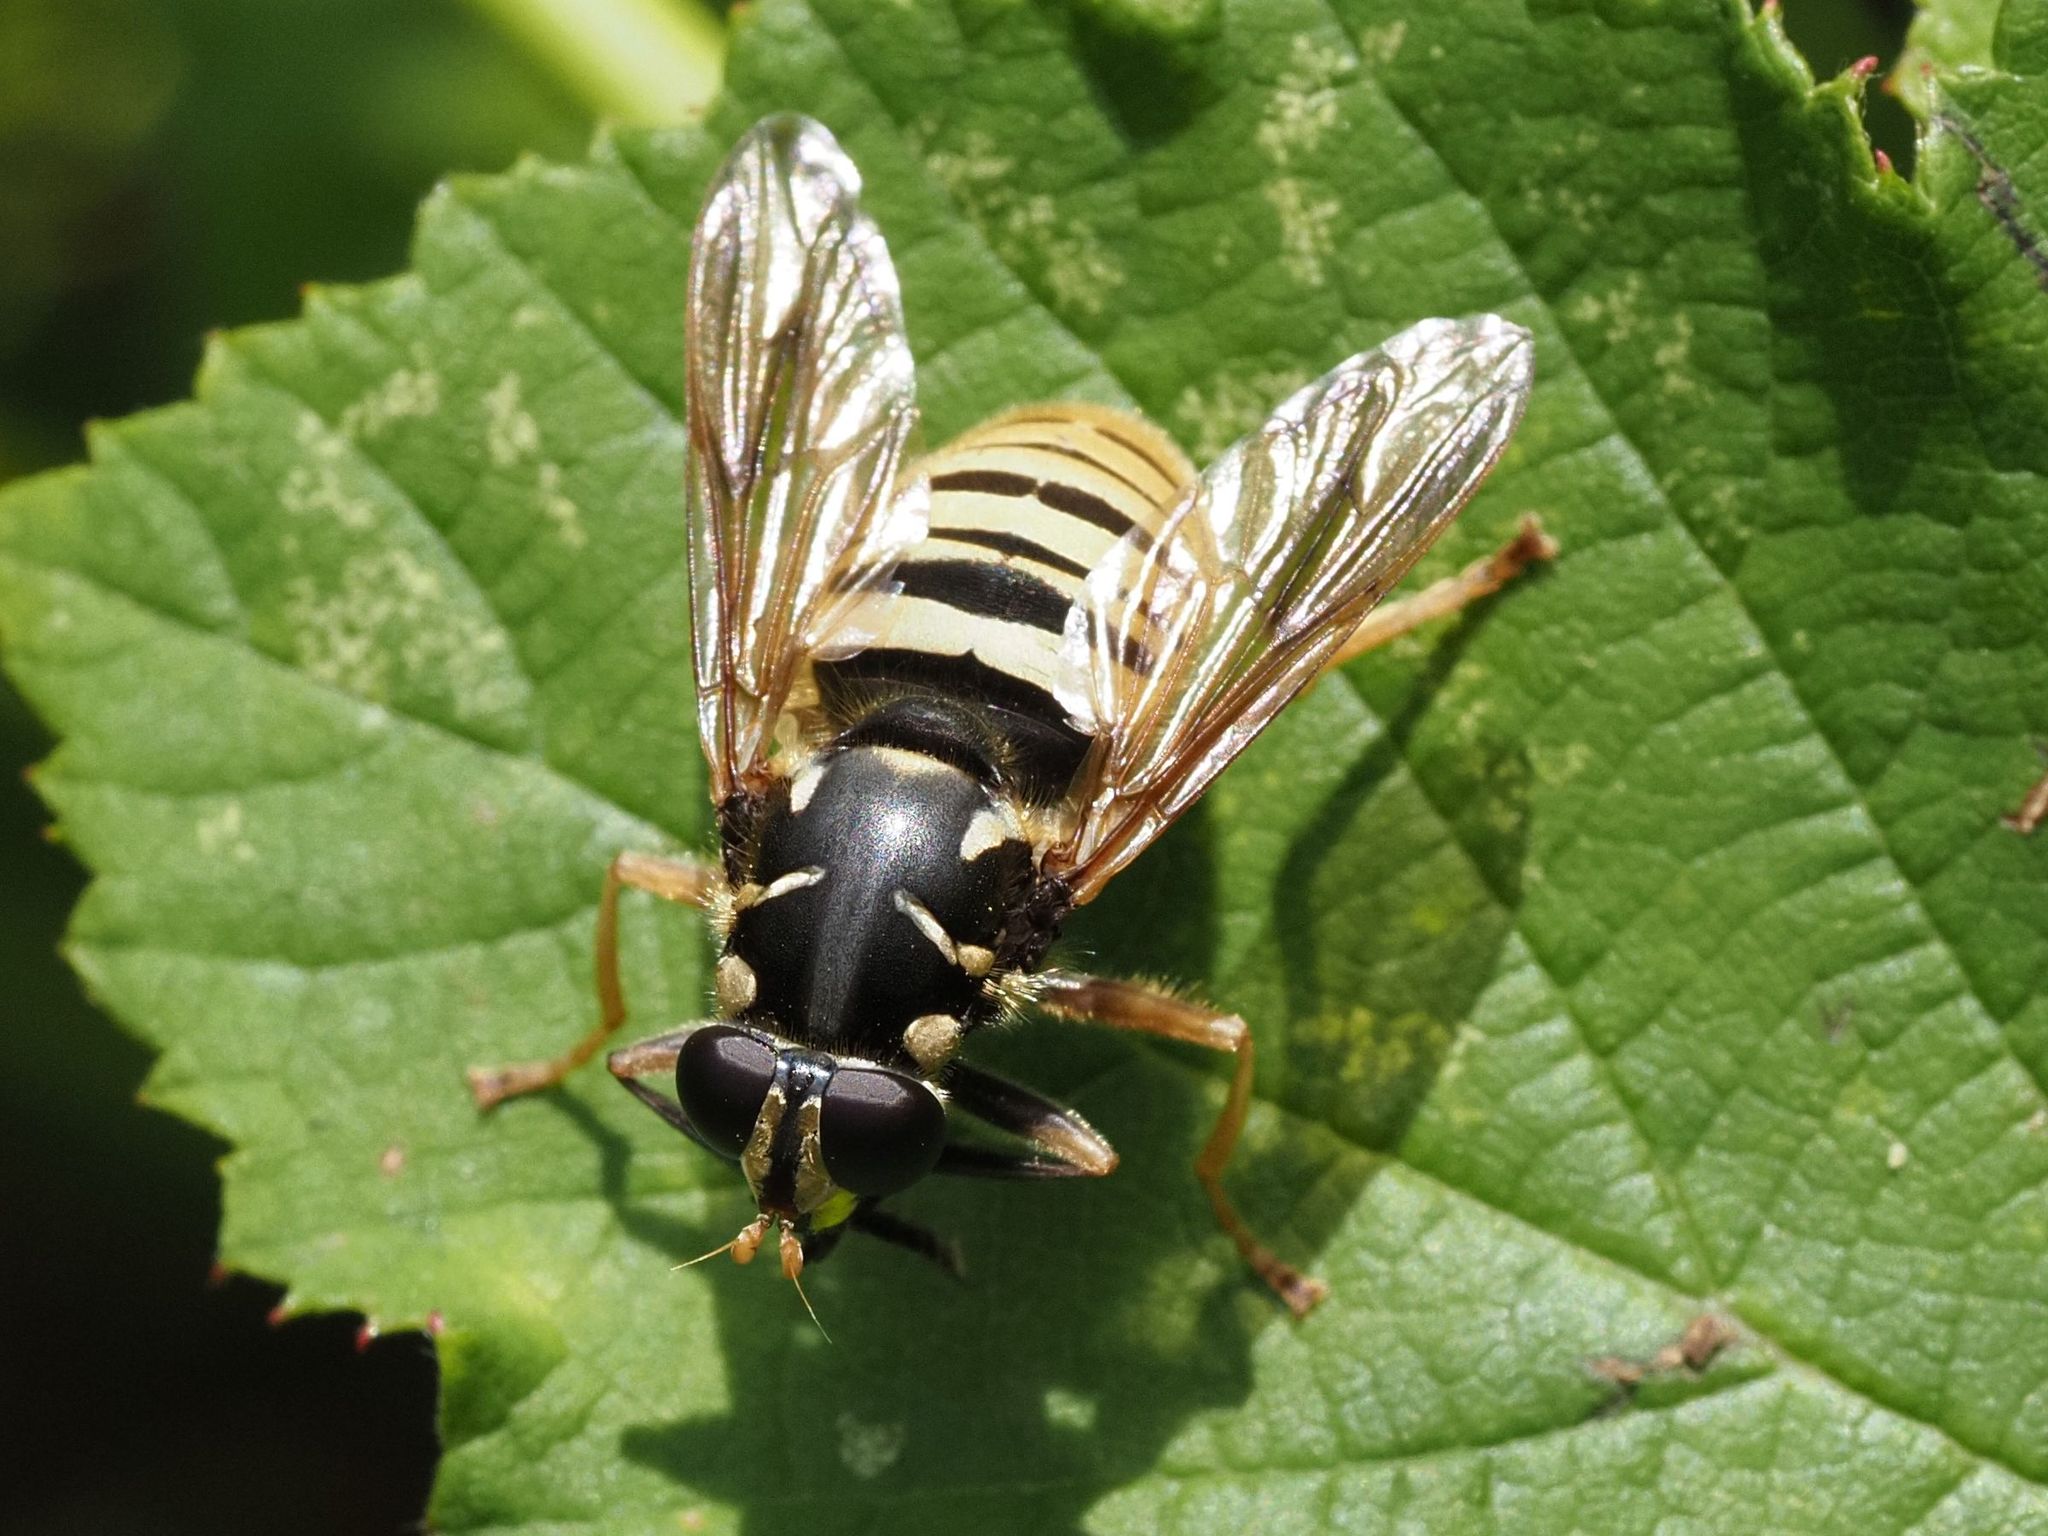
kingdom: Animalia
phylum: Arthropoda
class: Insecta
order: Diptera
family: Syrphidae
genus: Temnostoma
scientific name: Temnostoma vespiforme
